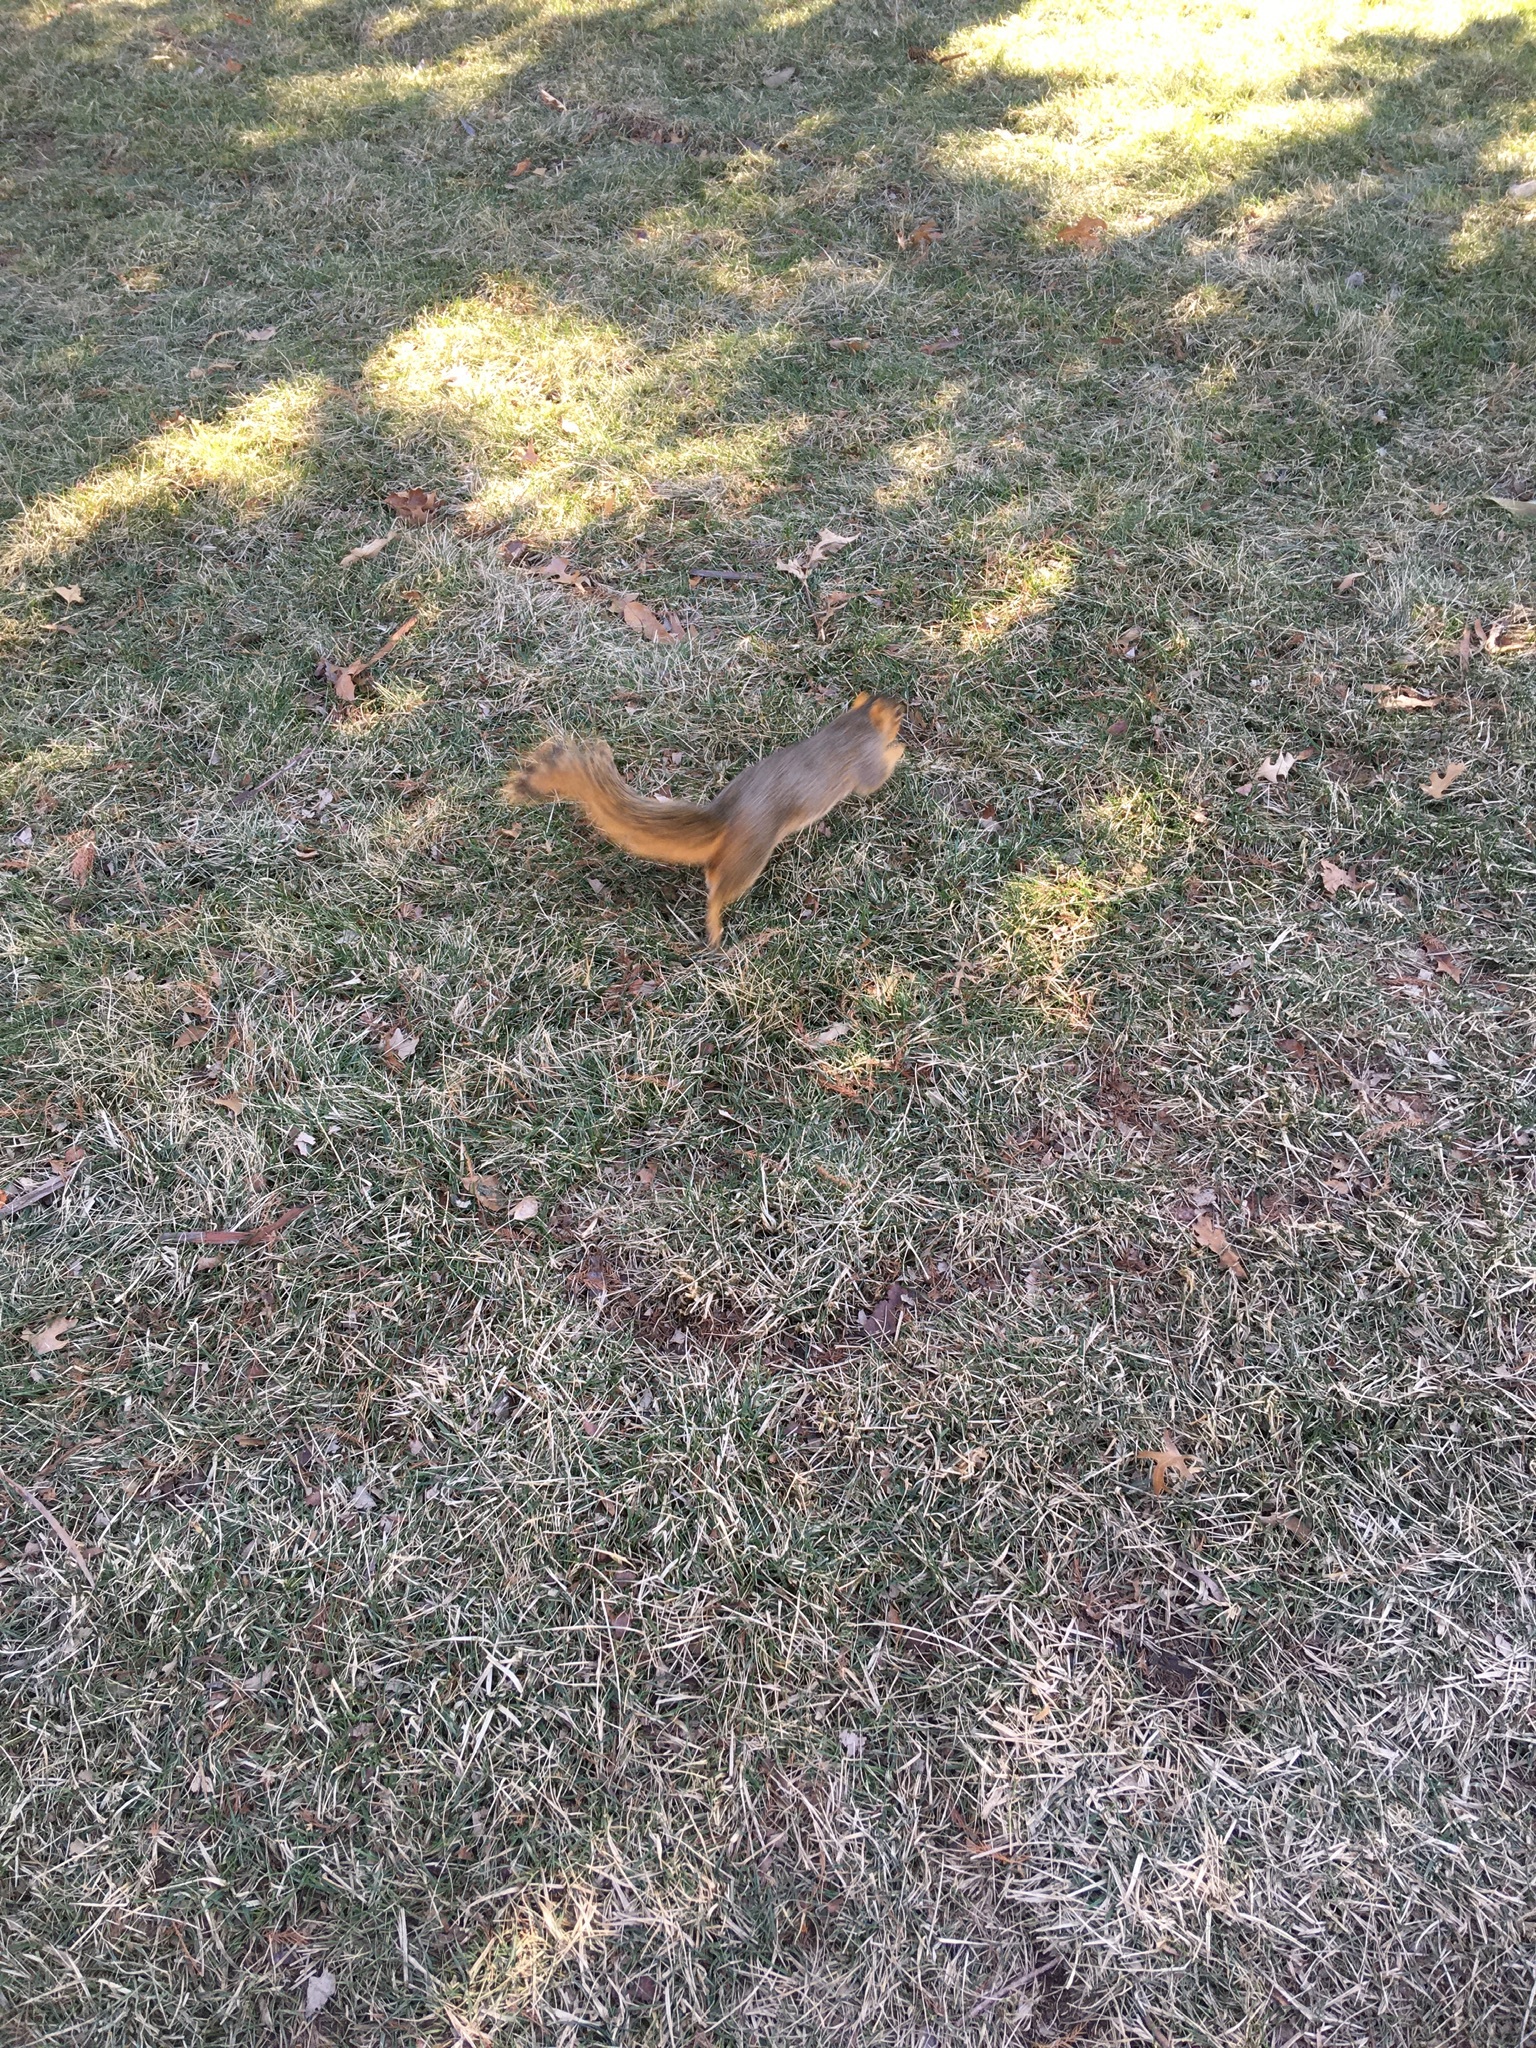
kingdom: Animalia
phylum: Chordata
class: Mammalia
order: Rodentia
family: Sciuridae
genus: Sciurus
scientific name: Sciurus niger
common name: Fox squirrel
